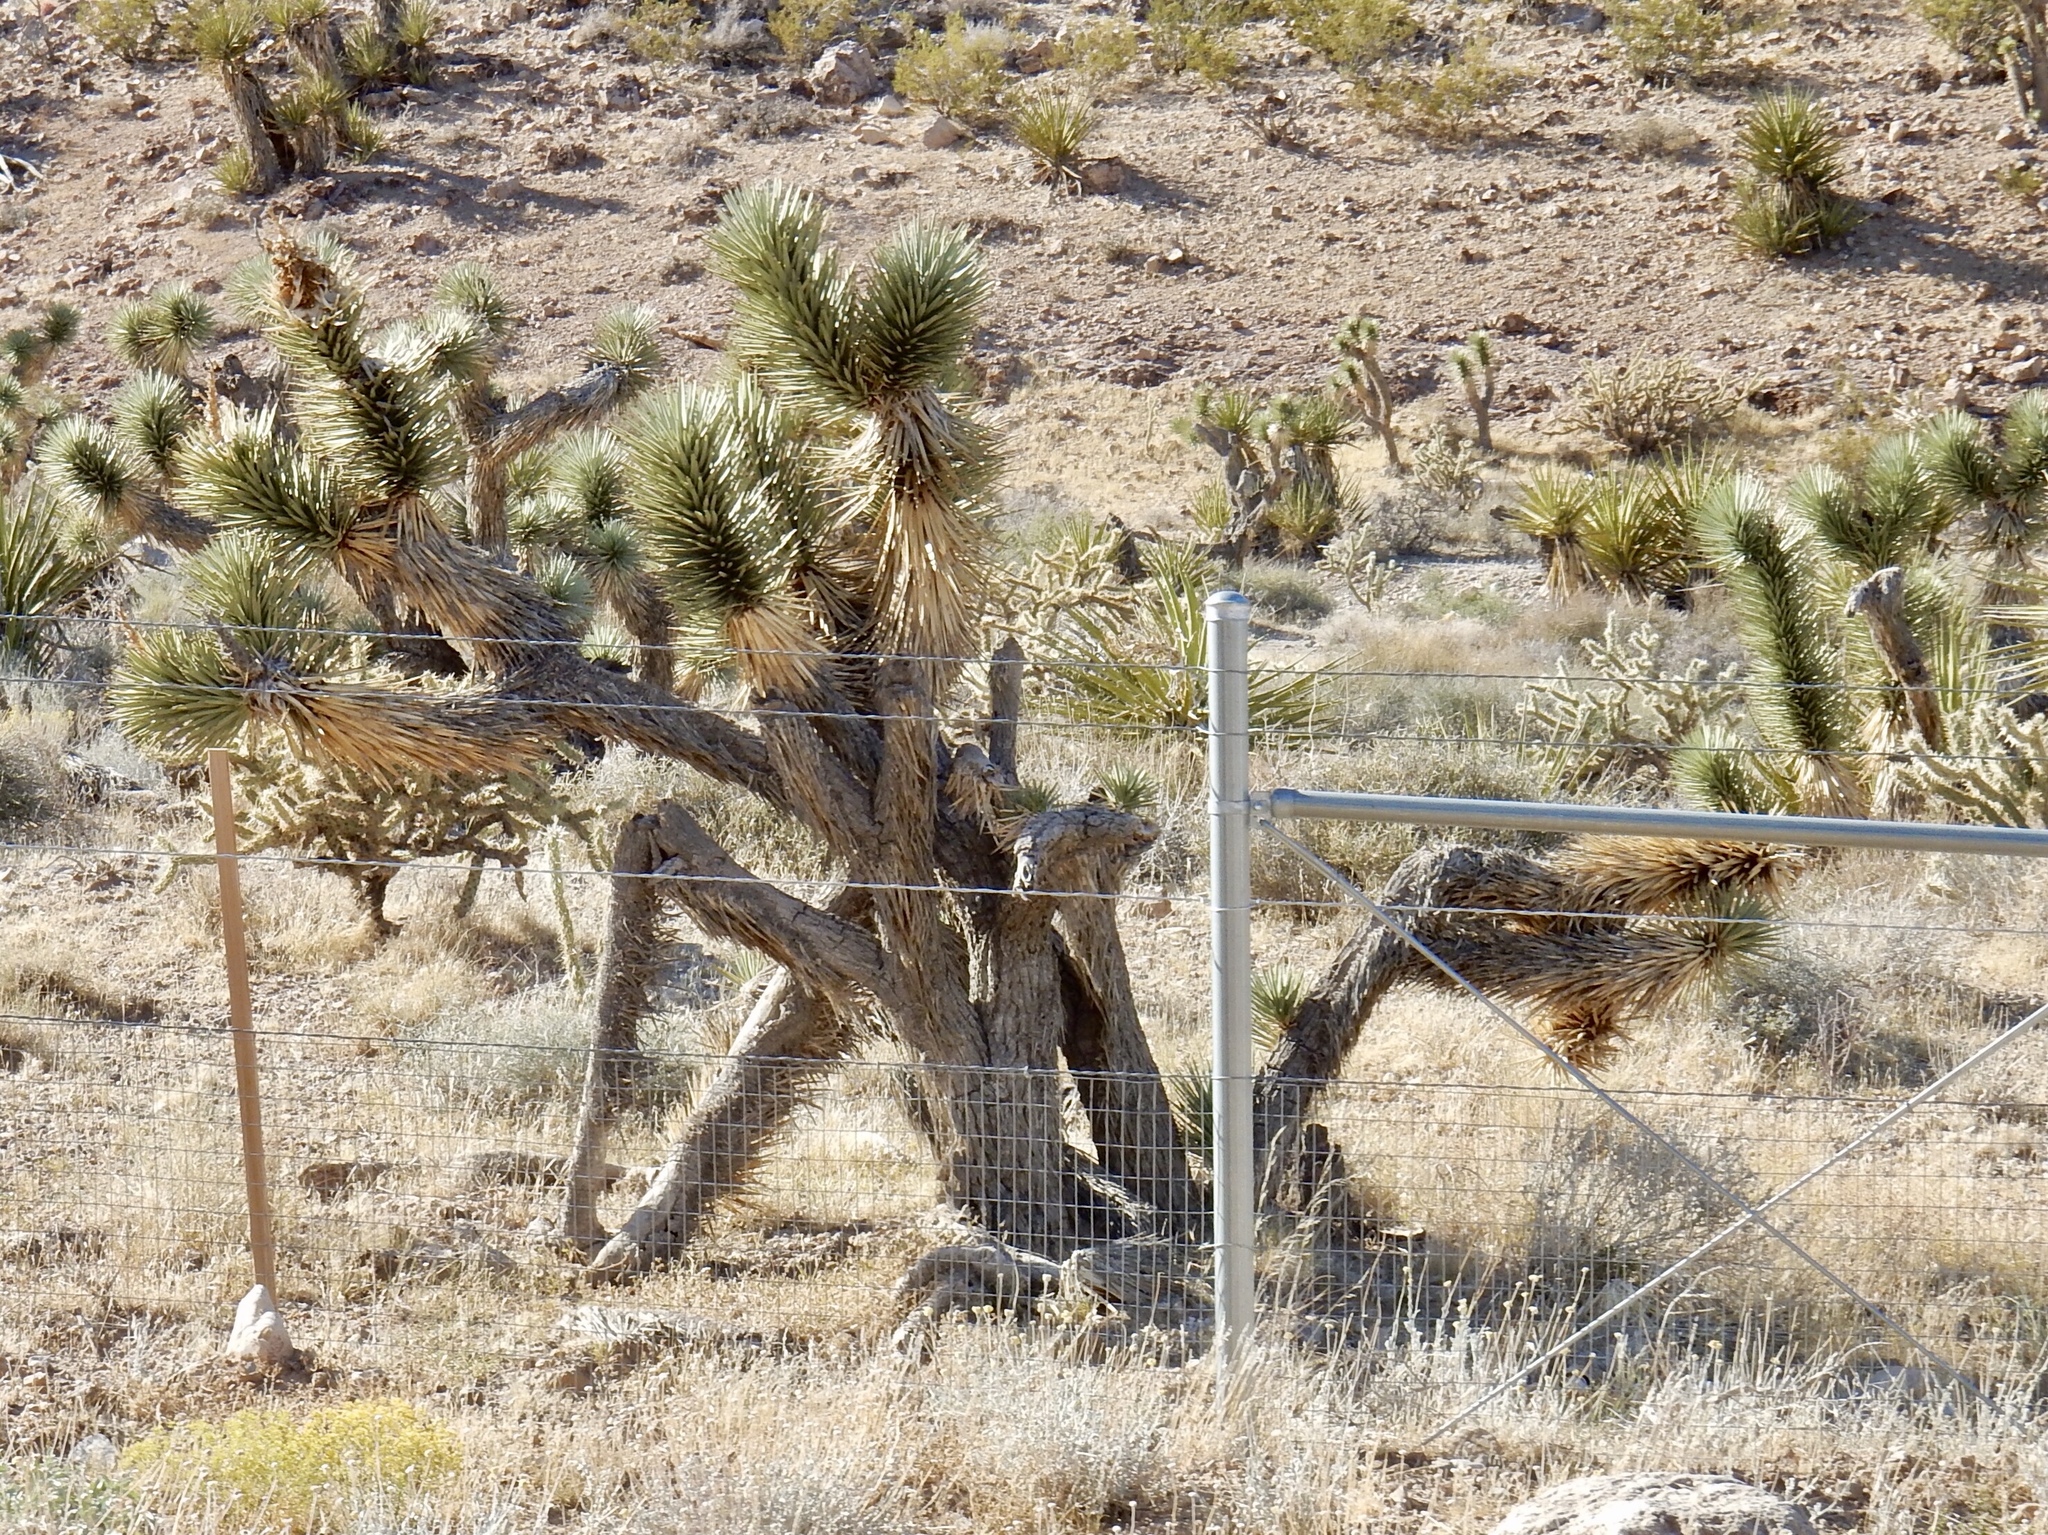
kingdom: Plantae
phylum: Tracheophyta
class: Liliopsida
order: Asparagales
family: Asparagaceae
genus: Yucca
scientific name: Yucca brevifolia
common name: Joshua tree
